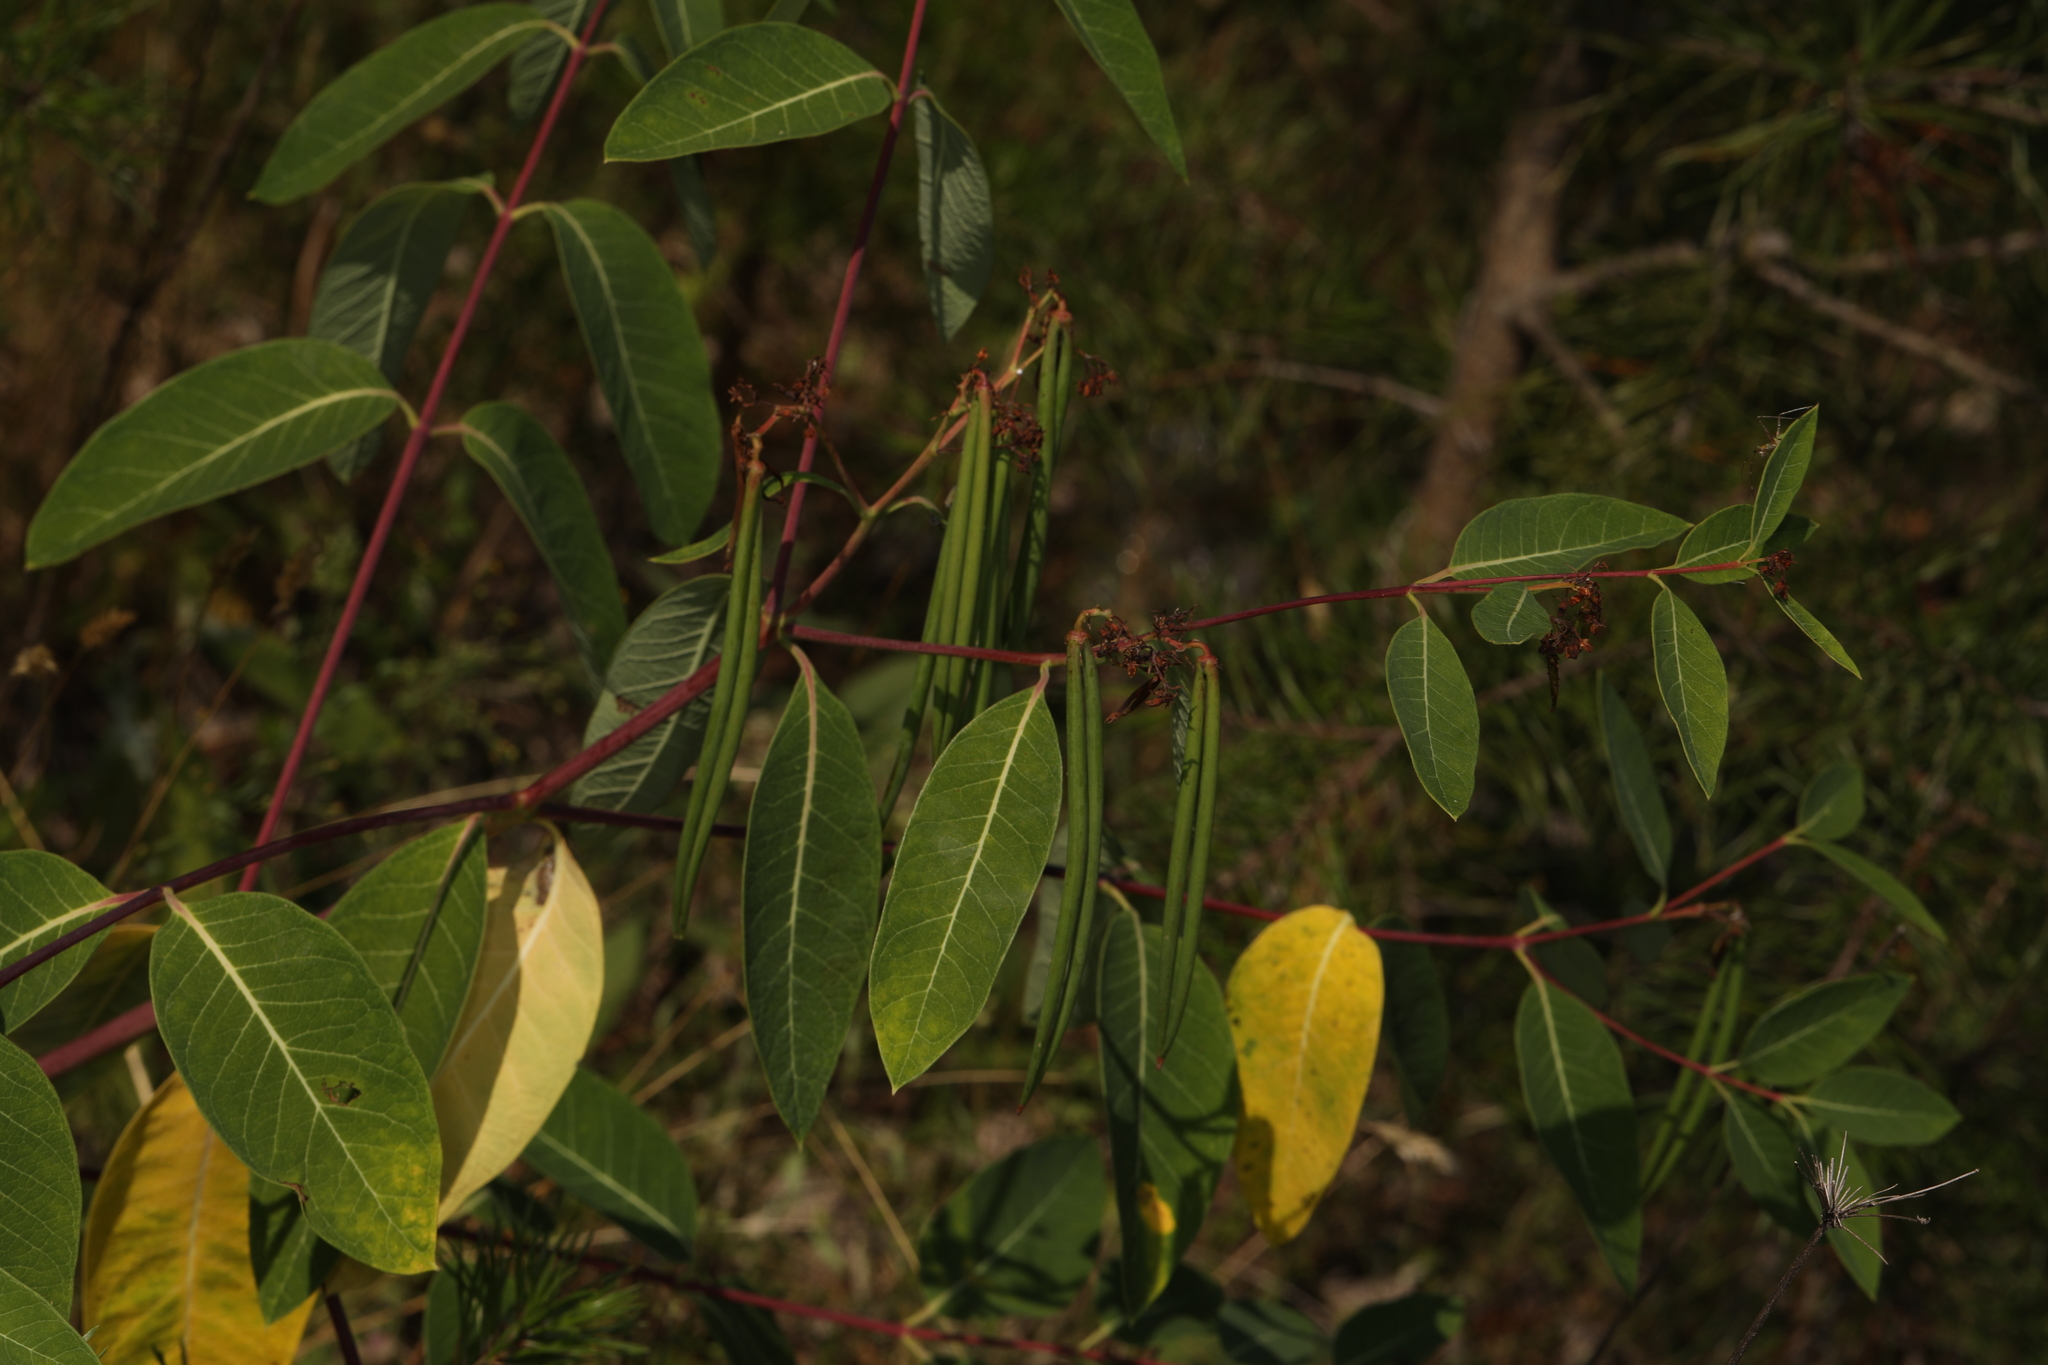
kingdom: Plantae
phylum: Tracheophyta
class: Magnoliopsida
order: Gentianales
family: Apocynaceae
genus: Apocynum
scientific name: Apocynum cannabinum
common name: Hemp dogbane
